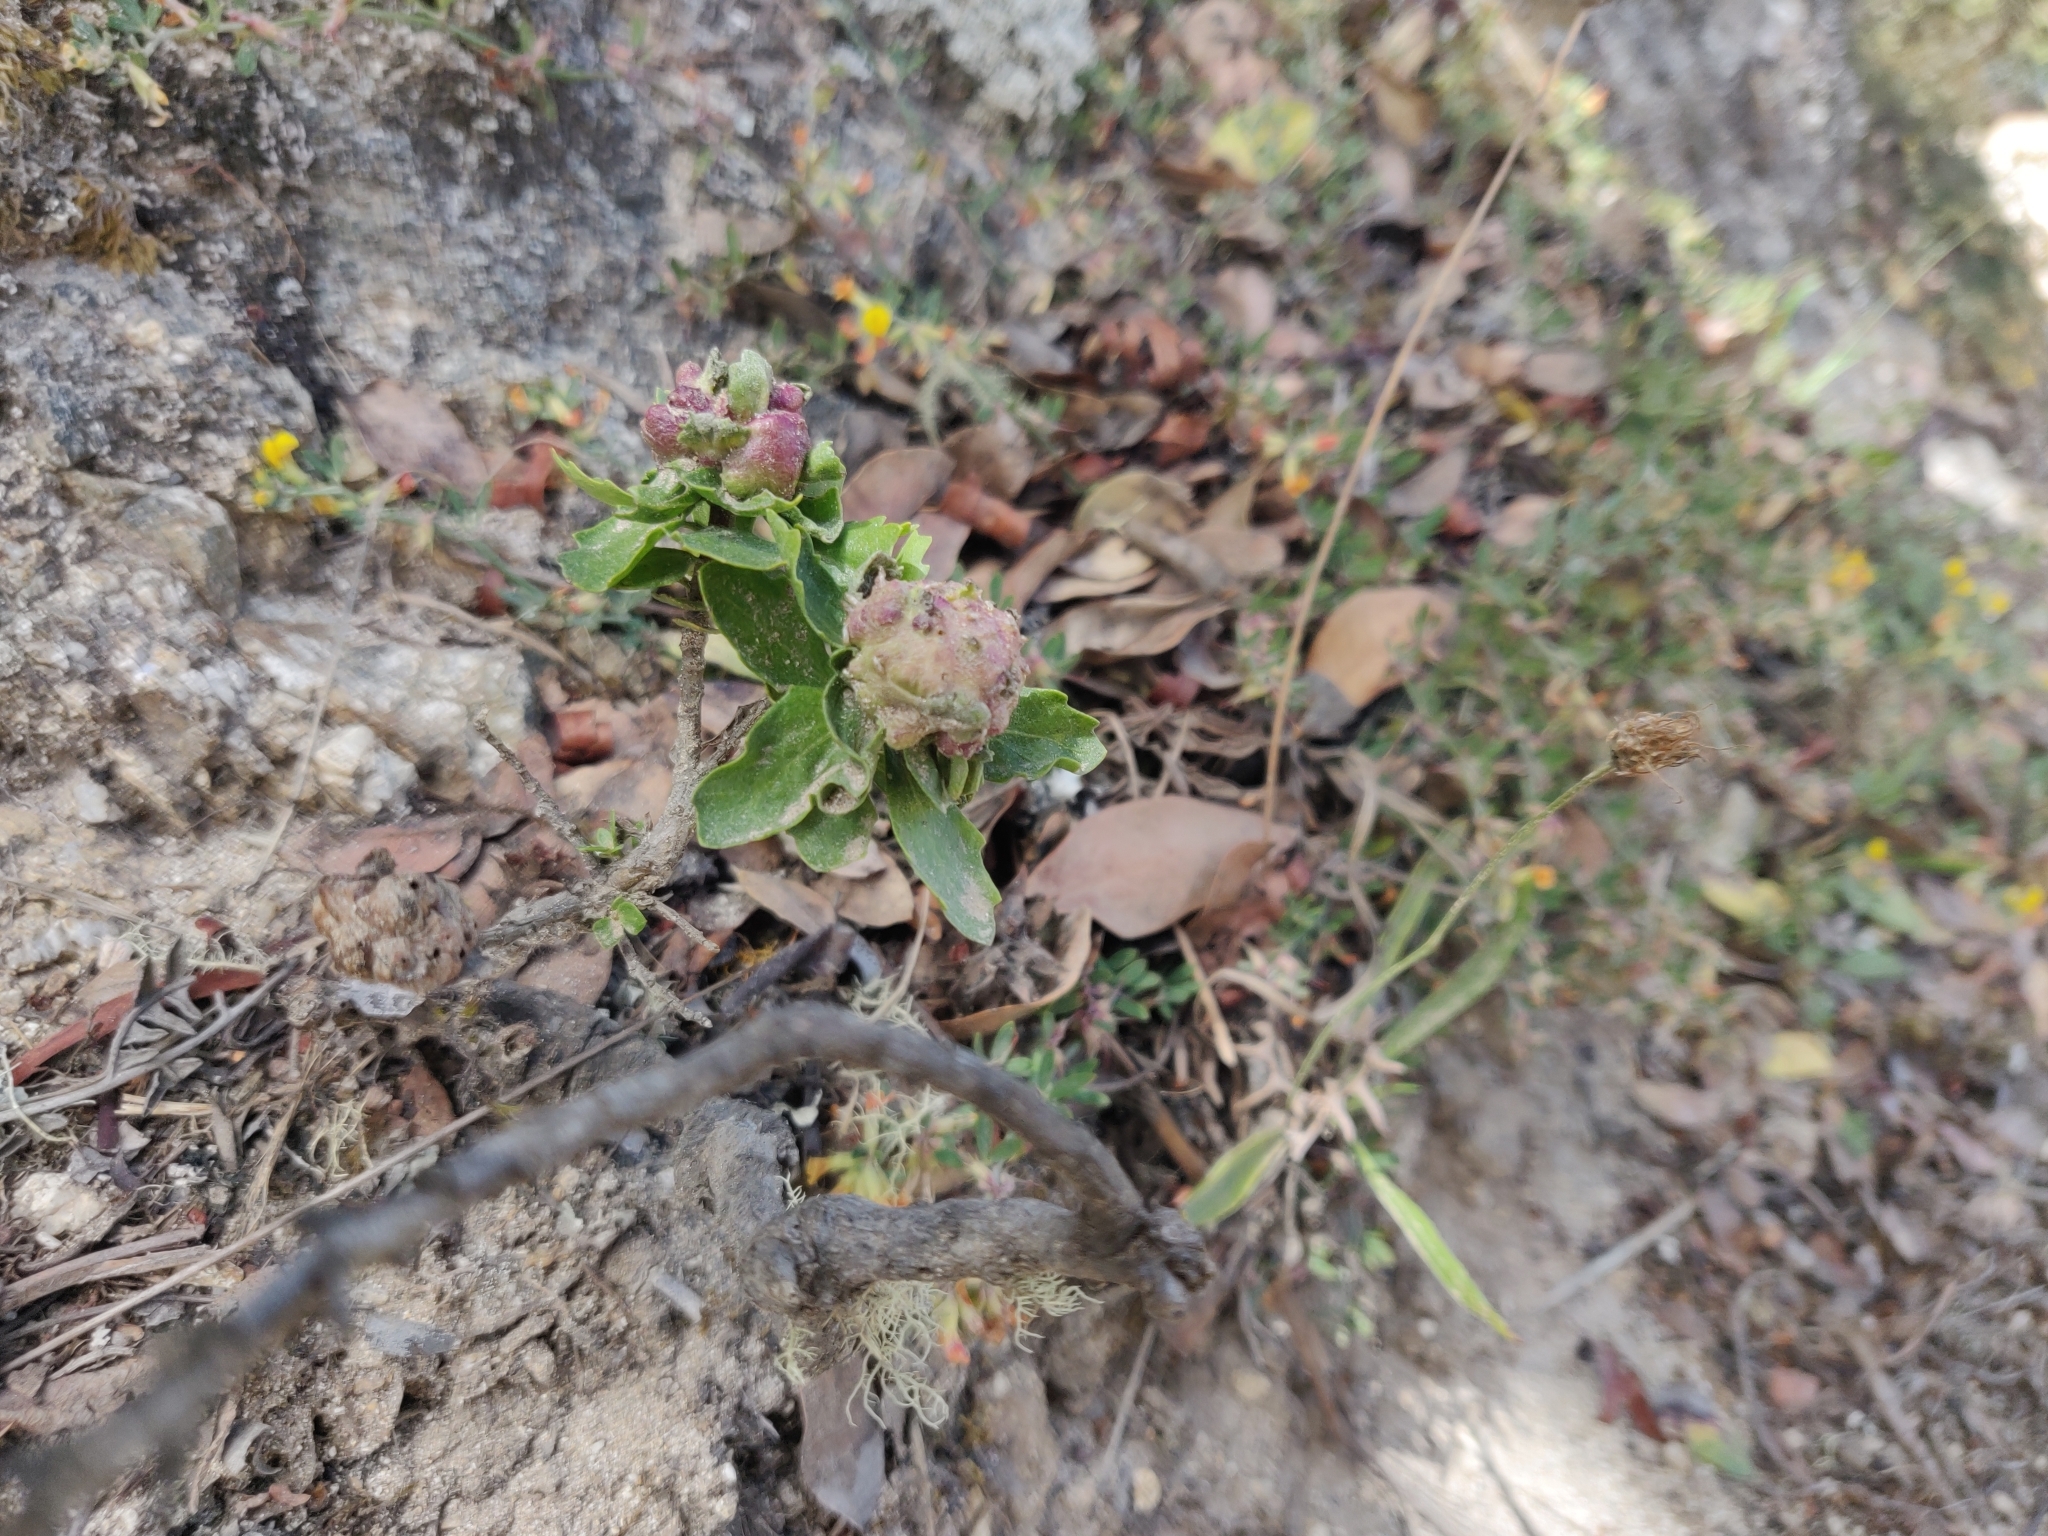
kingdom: Animalia
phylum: Arthropoda
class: Insecta
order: Diptera
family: Cecidomyiidae
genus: Rhopalomyia
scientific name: Rhopalomyia californica
